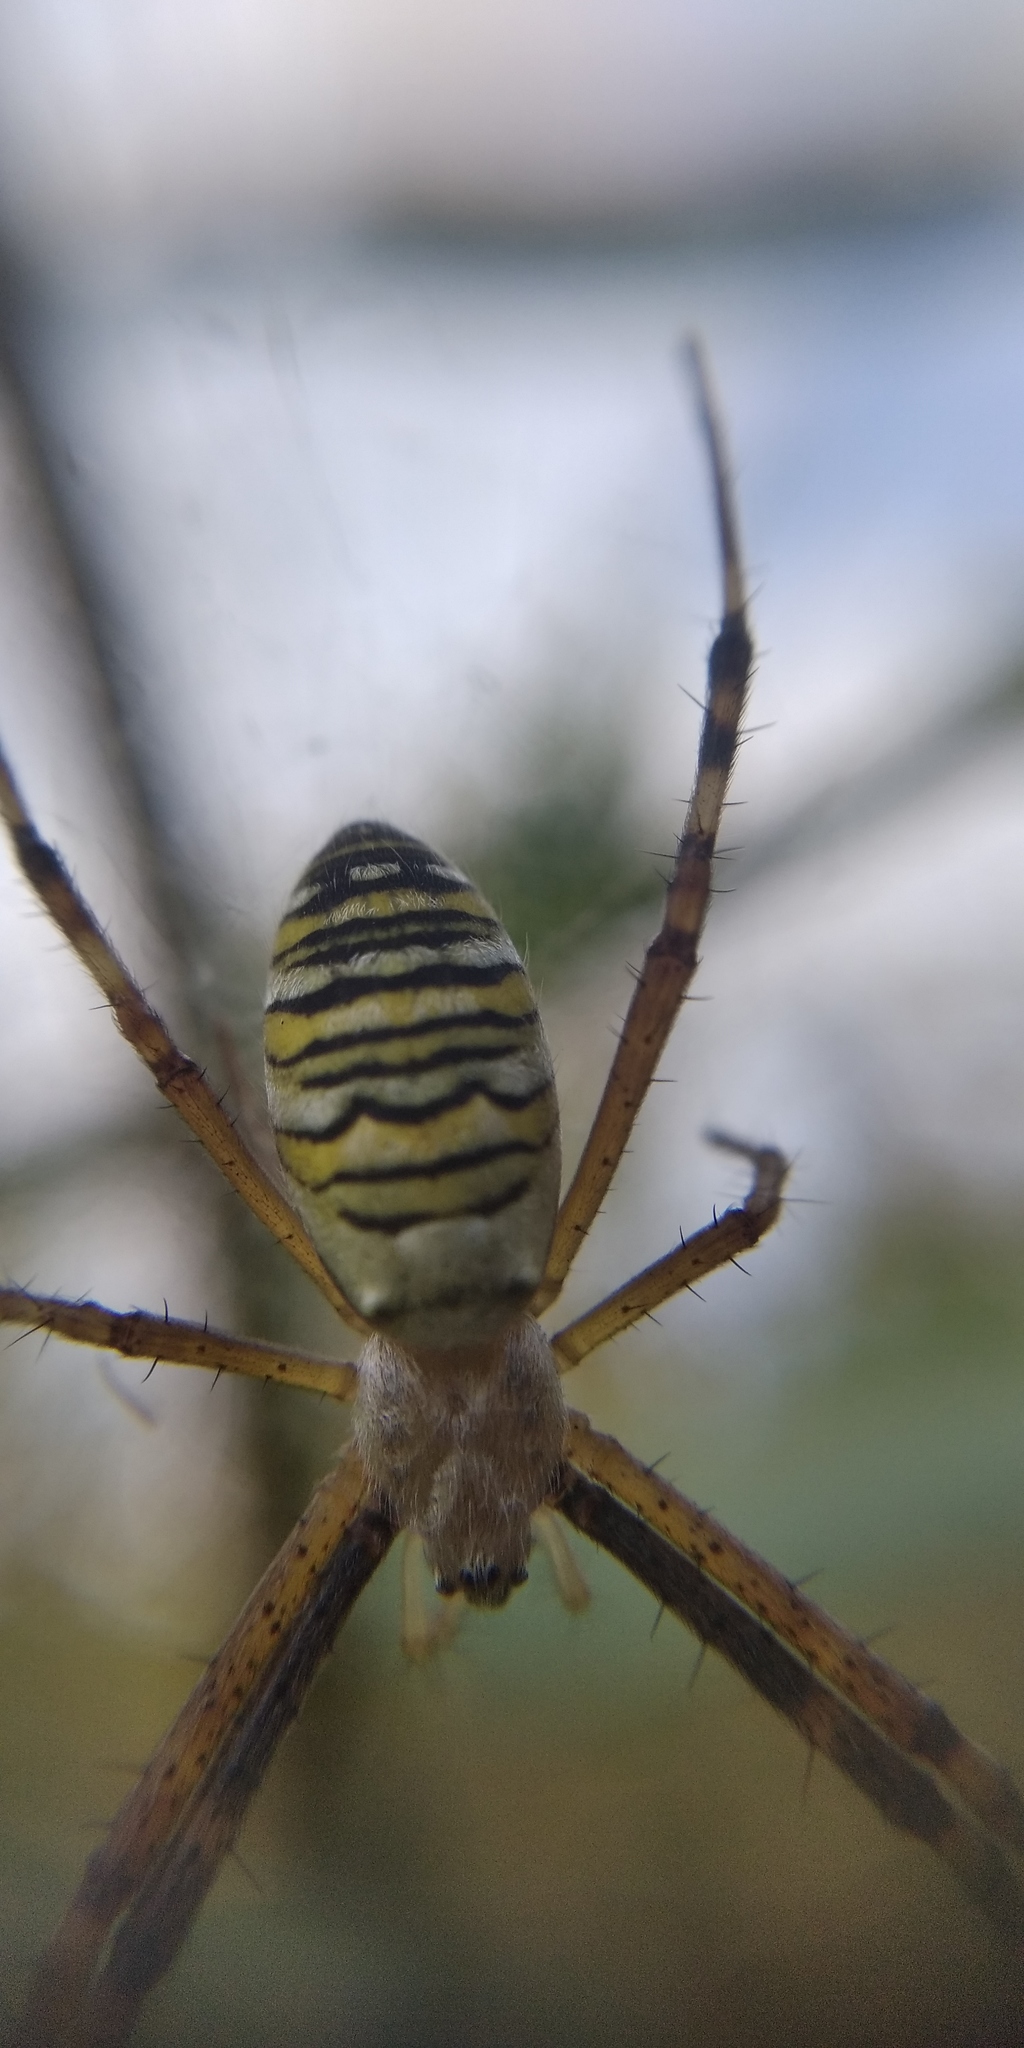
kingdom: Animalia
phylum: Arthropoda
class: Arachnida
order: Araneae
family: Araneidae
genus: Argiope
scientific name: Argiope bruennichi
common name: Wasp spider
